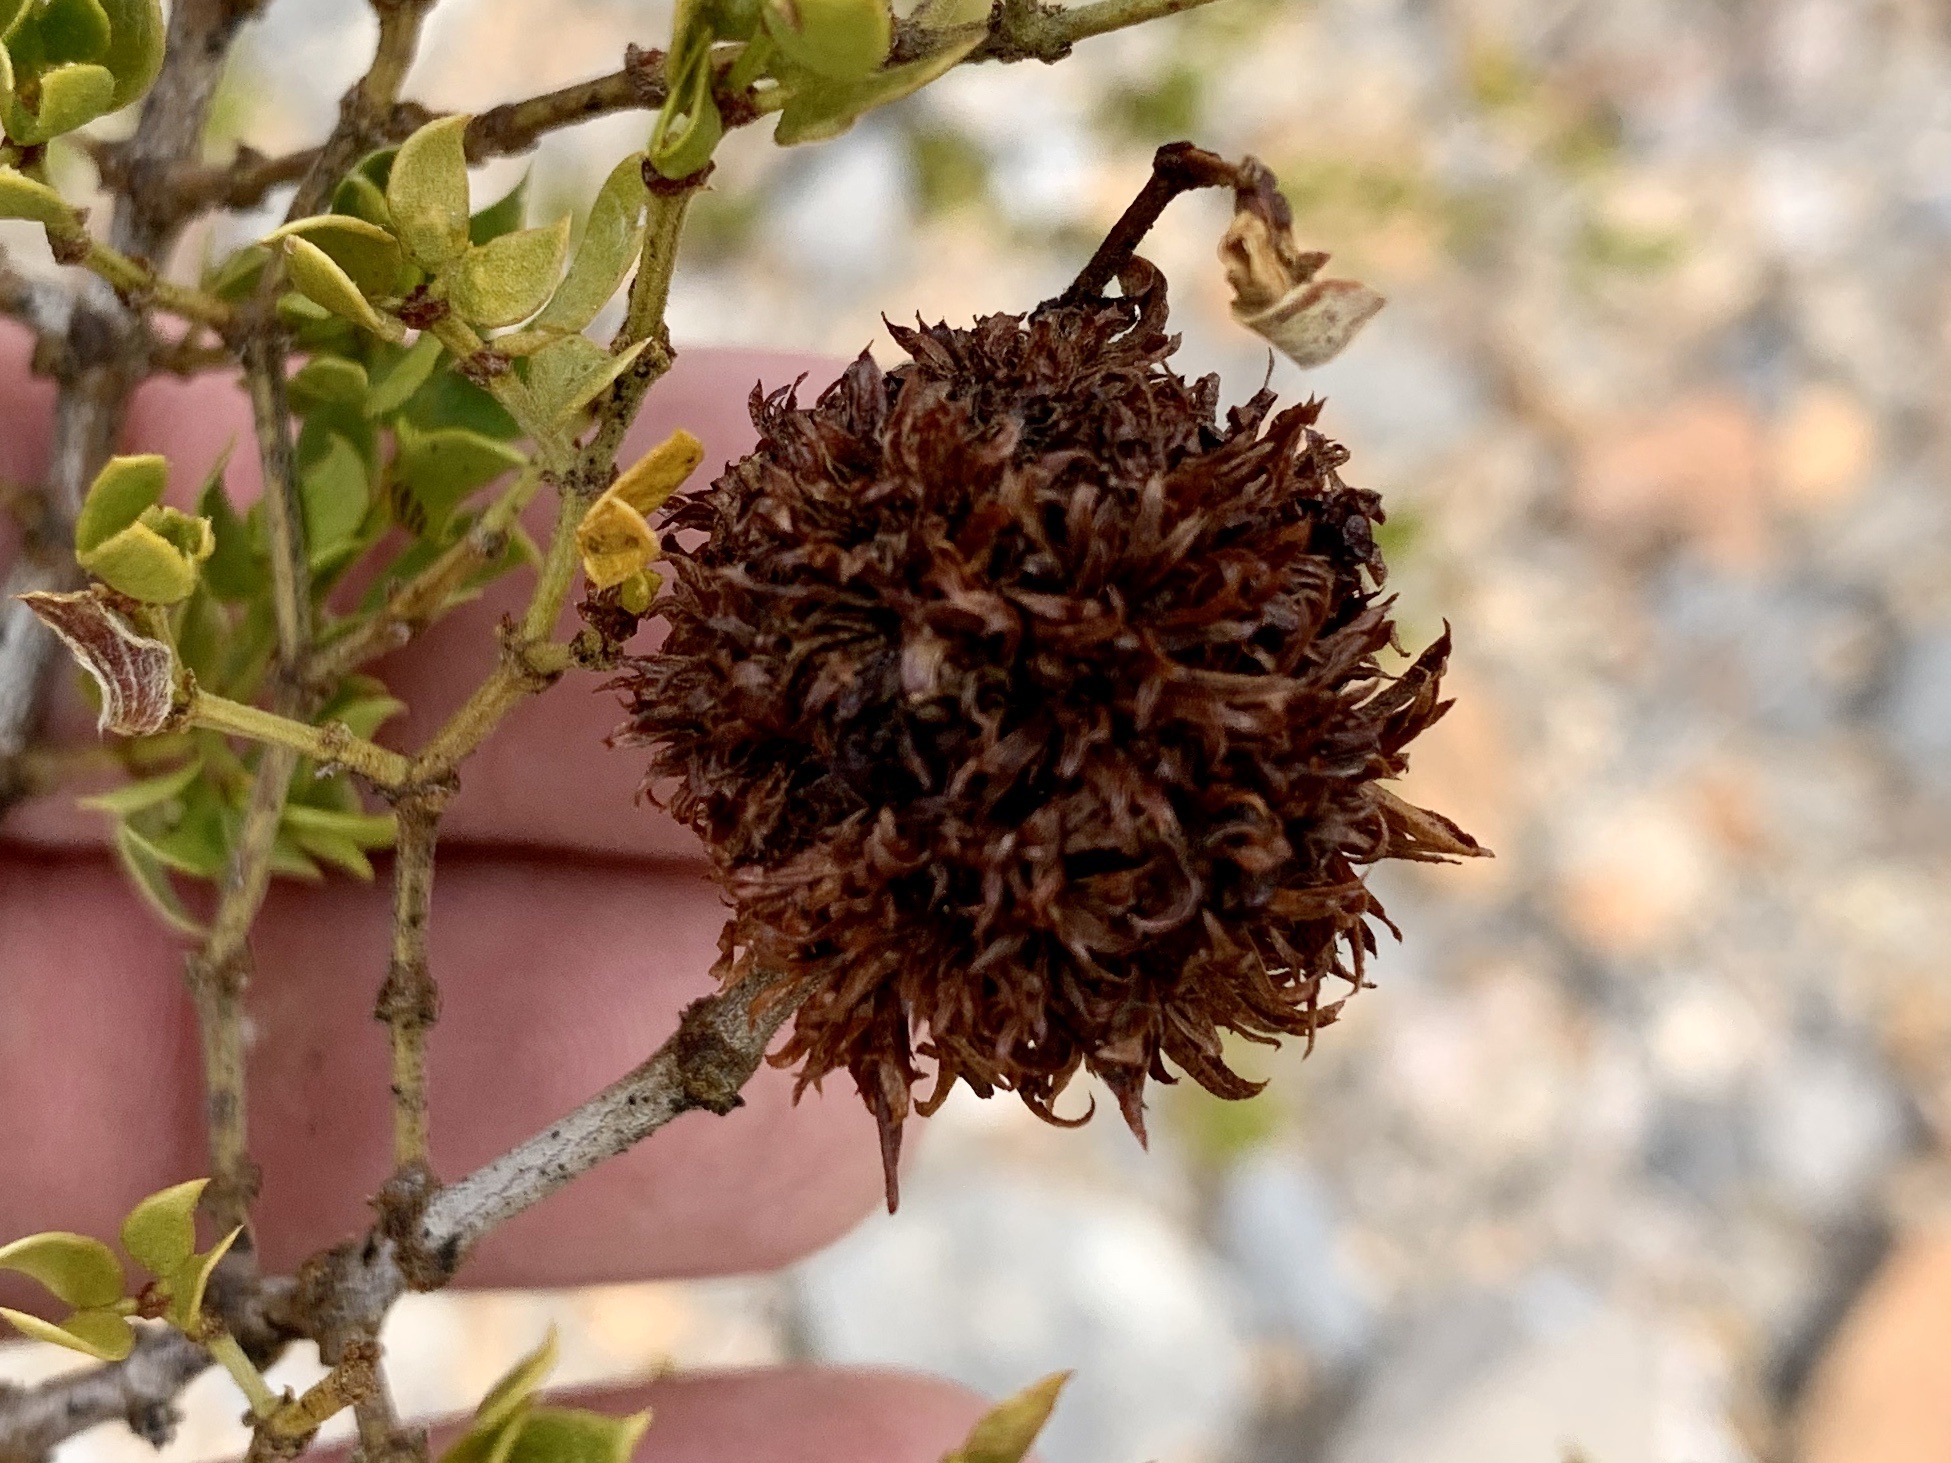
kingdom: Animalia
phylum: Arthropoda
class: Insecta
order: Diptera
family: Cecidomyiidae
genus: Asphondylia
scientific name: Asphondylia auripila
